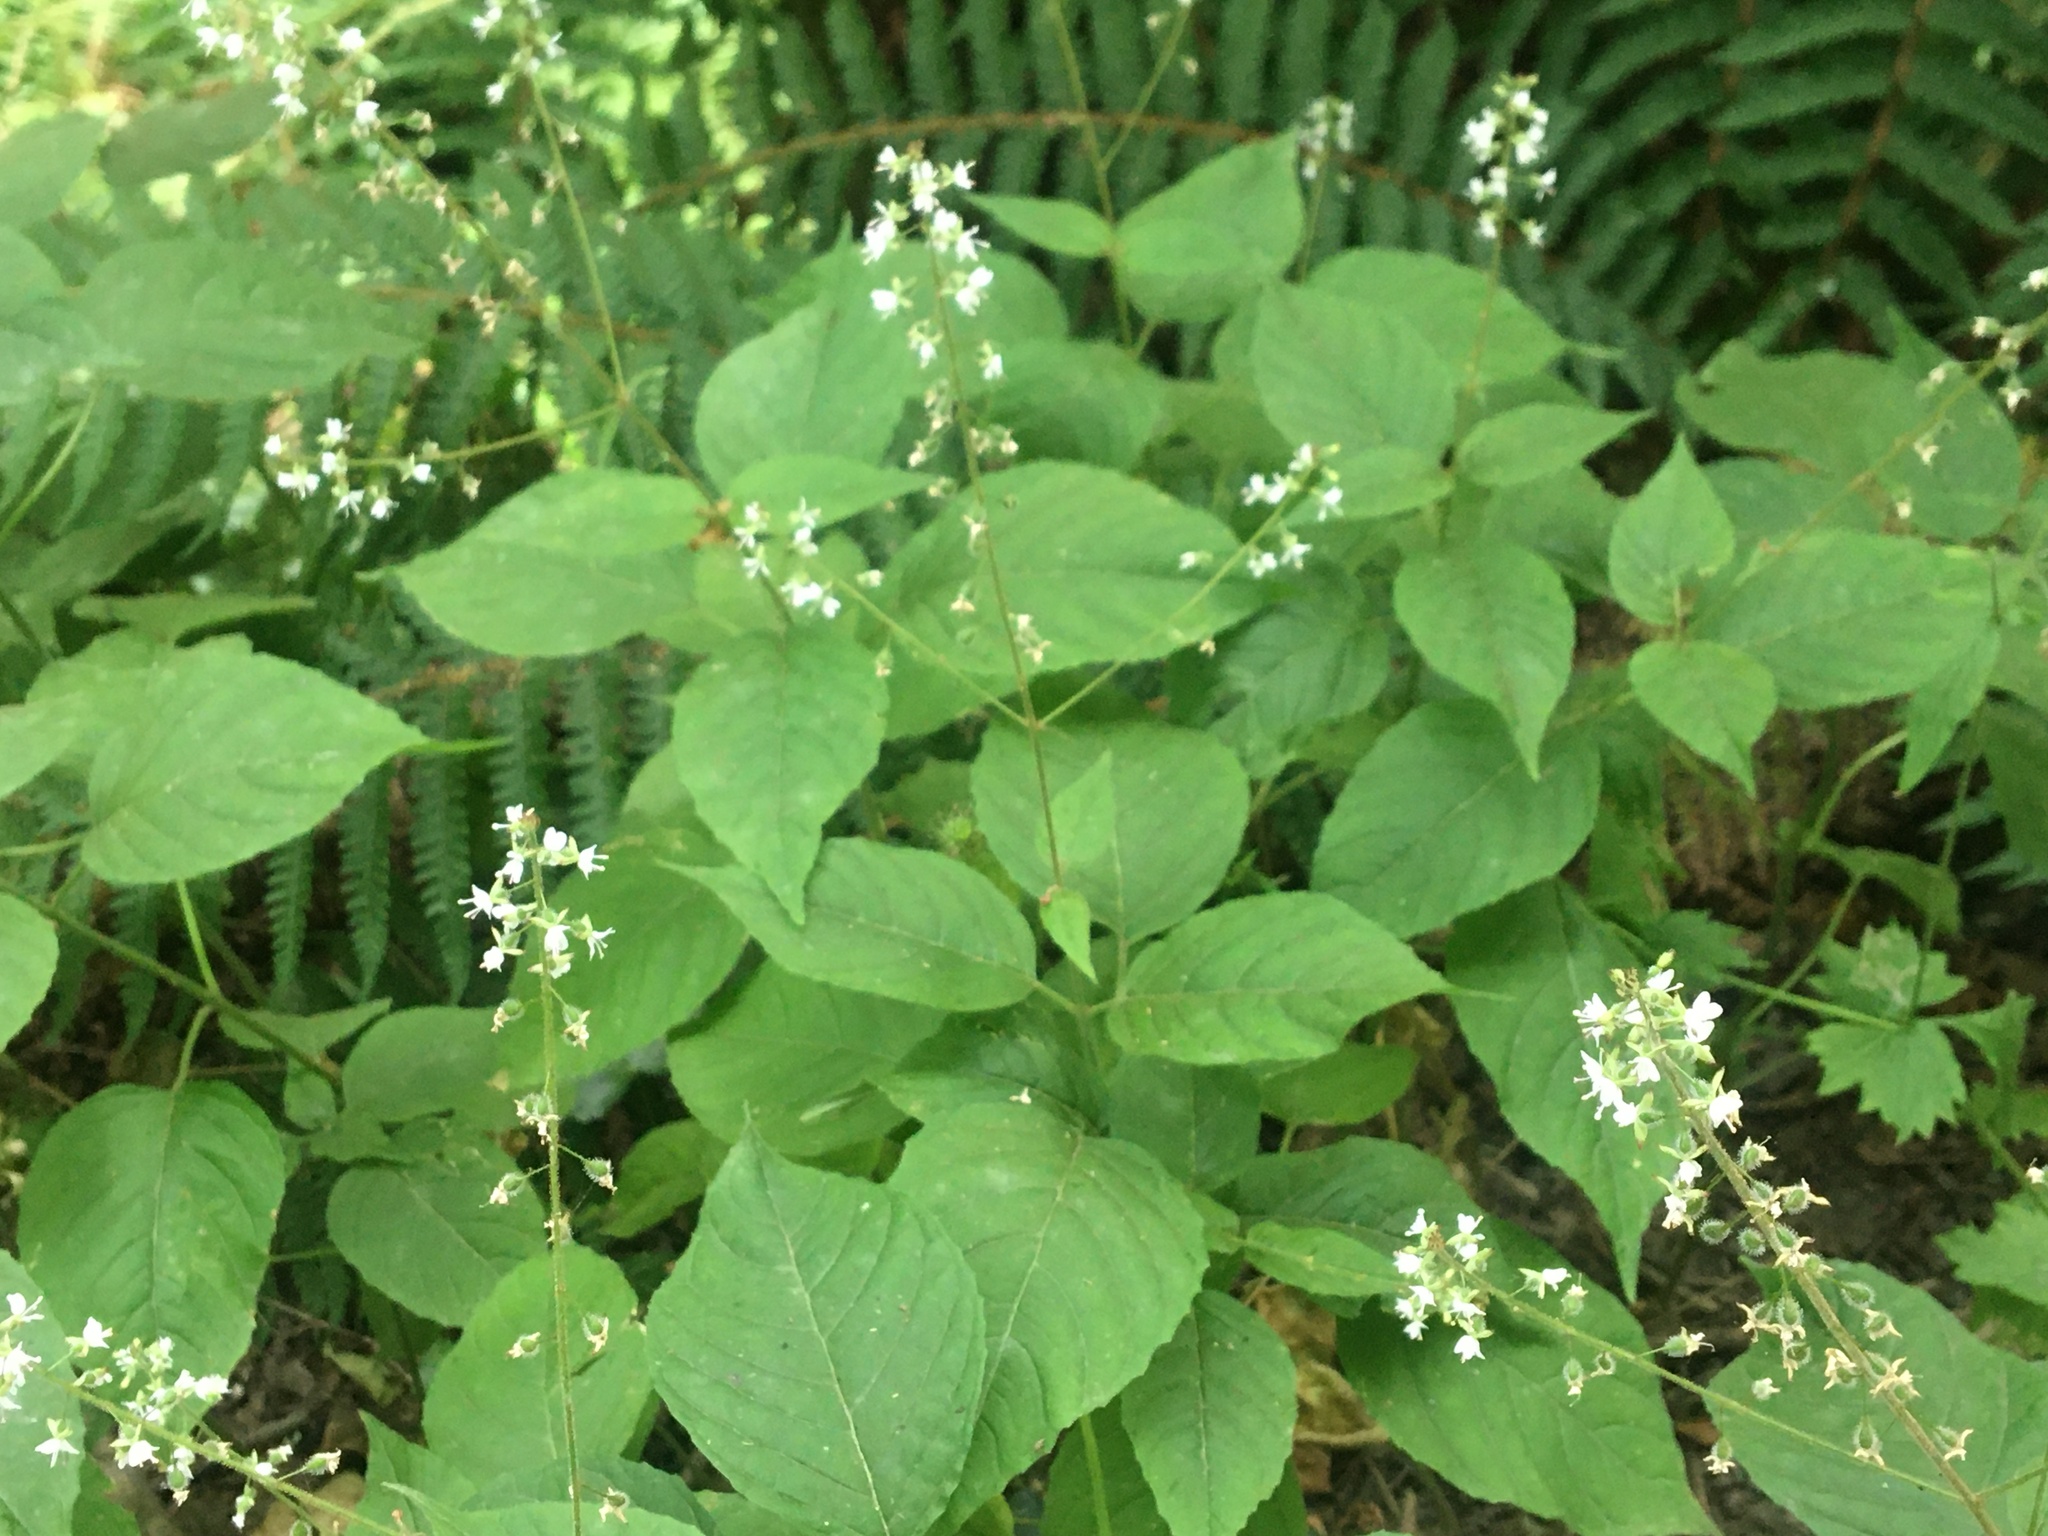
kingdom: Plantae
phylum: Tracheophyta
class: Magnoliopsida
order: Myrtales
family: Onagraceae
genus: Circaea
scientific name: Circaea lutetiana
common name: Enchanter's-nightshade
